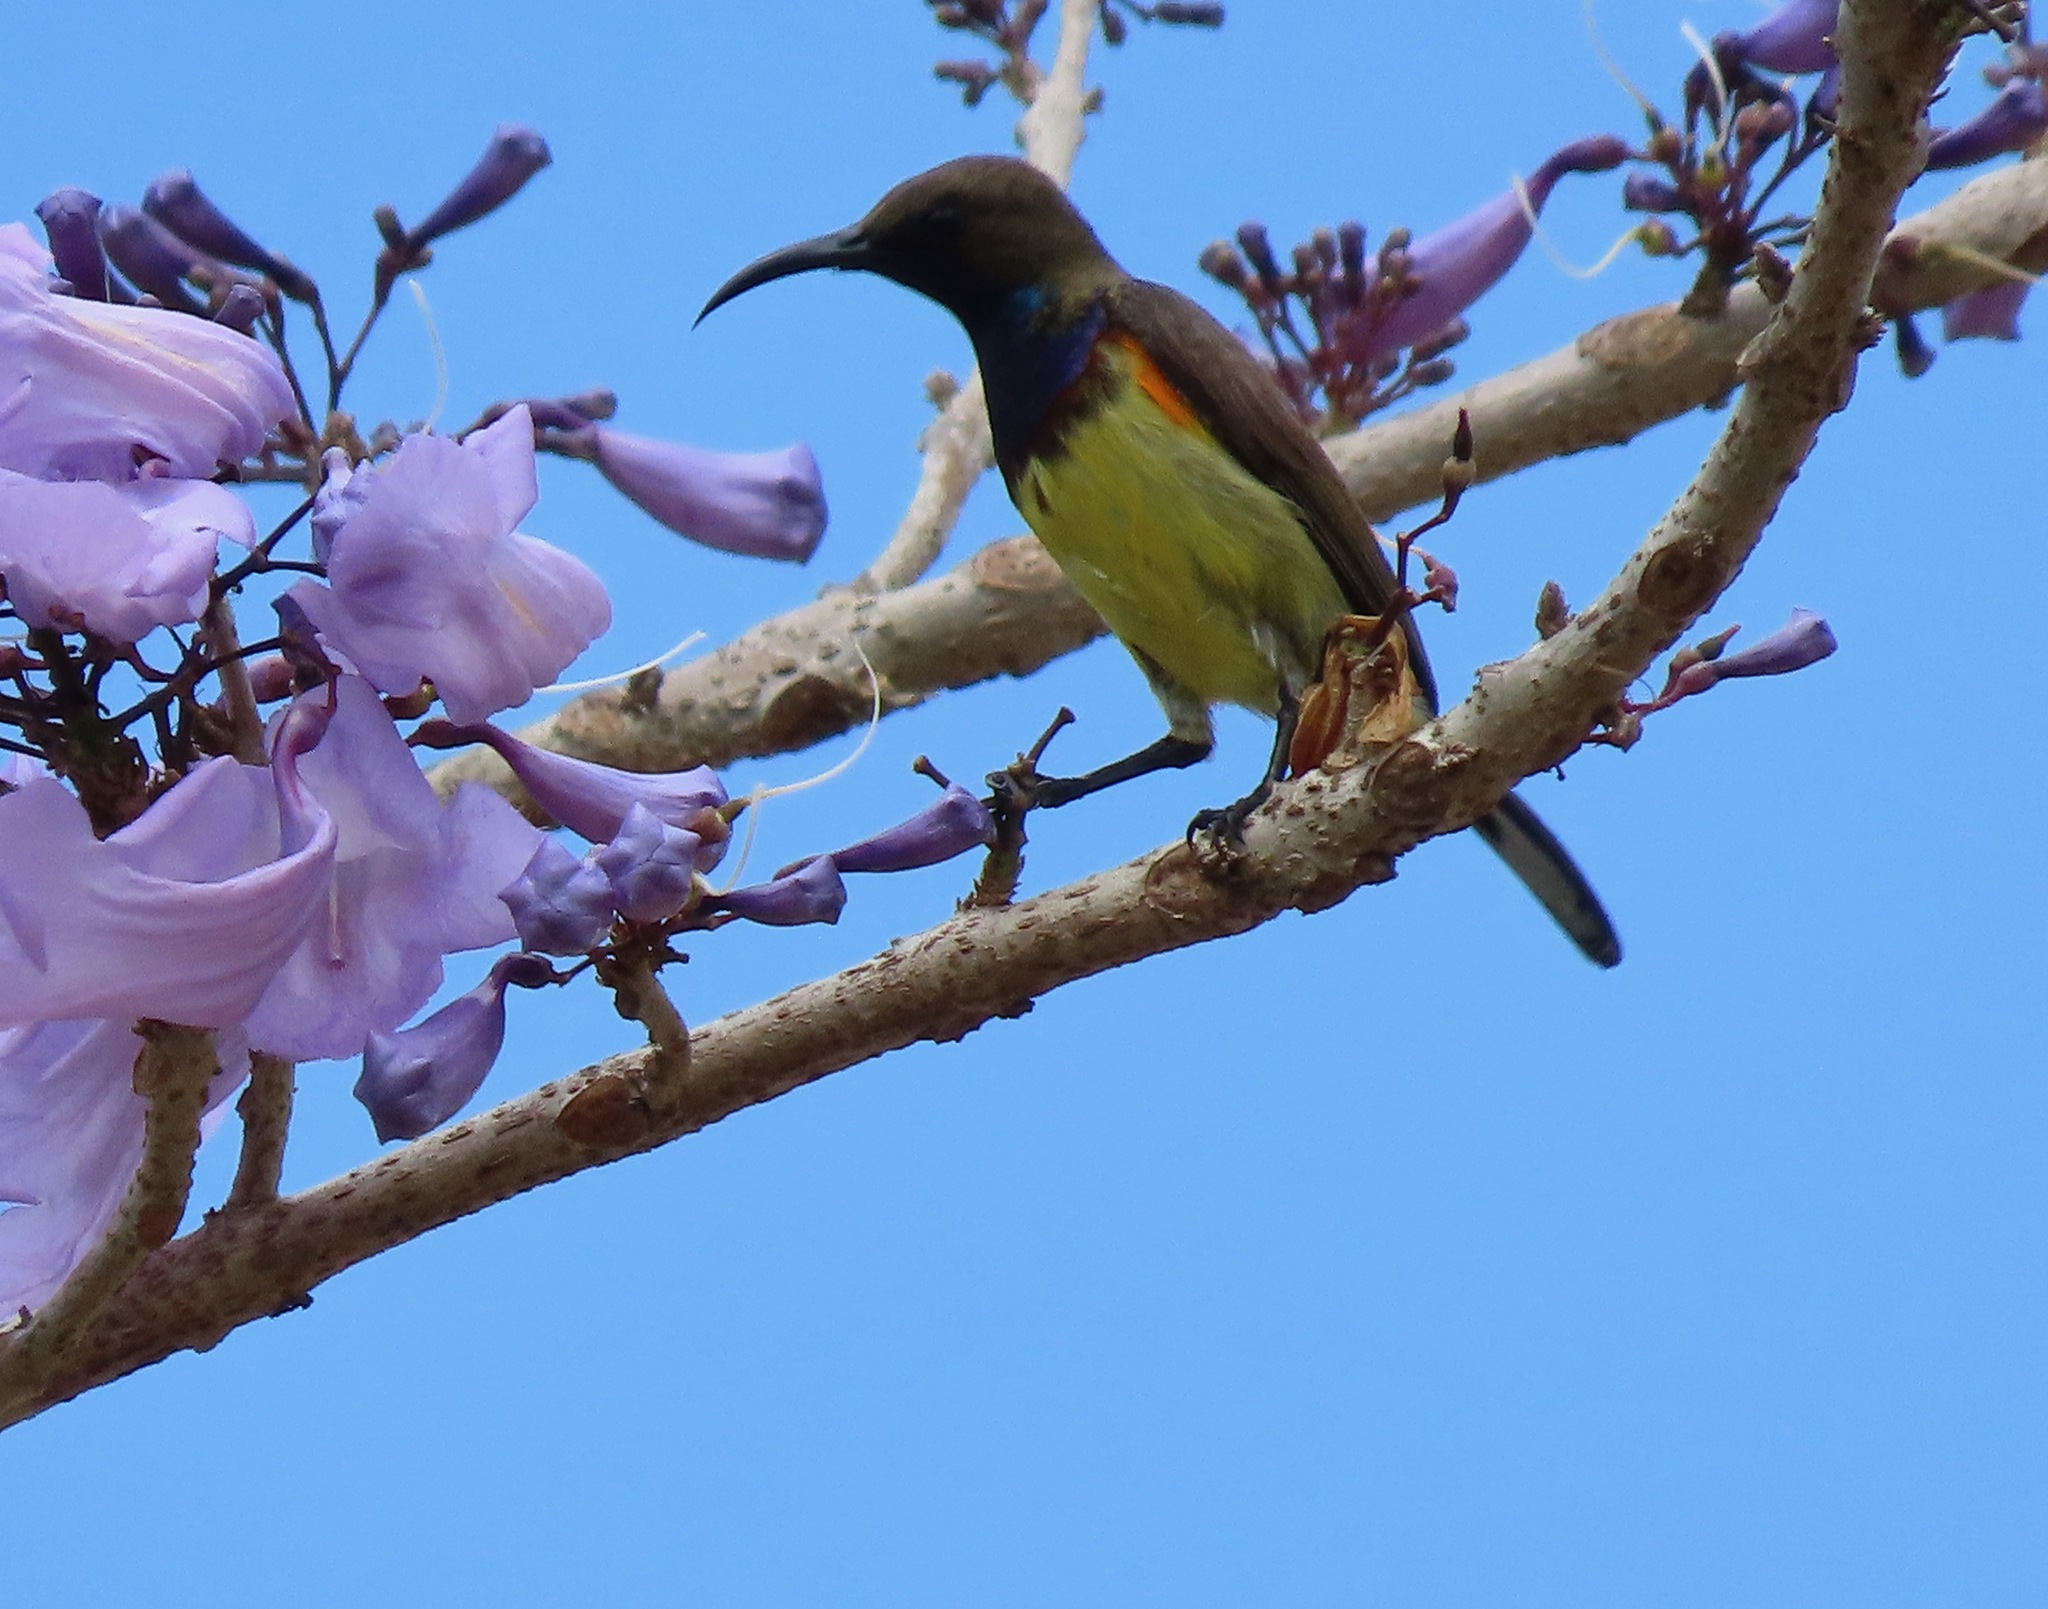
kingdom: Animalia
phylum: Chordata
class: Aves
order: Passeriformes
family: Nectariniidae
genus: Cinnyris
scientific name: Cinnyris
